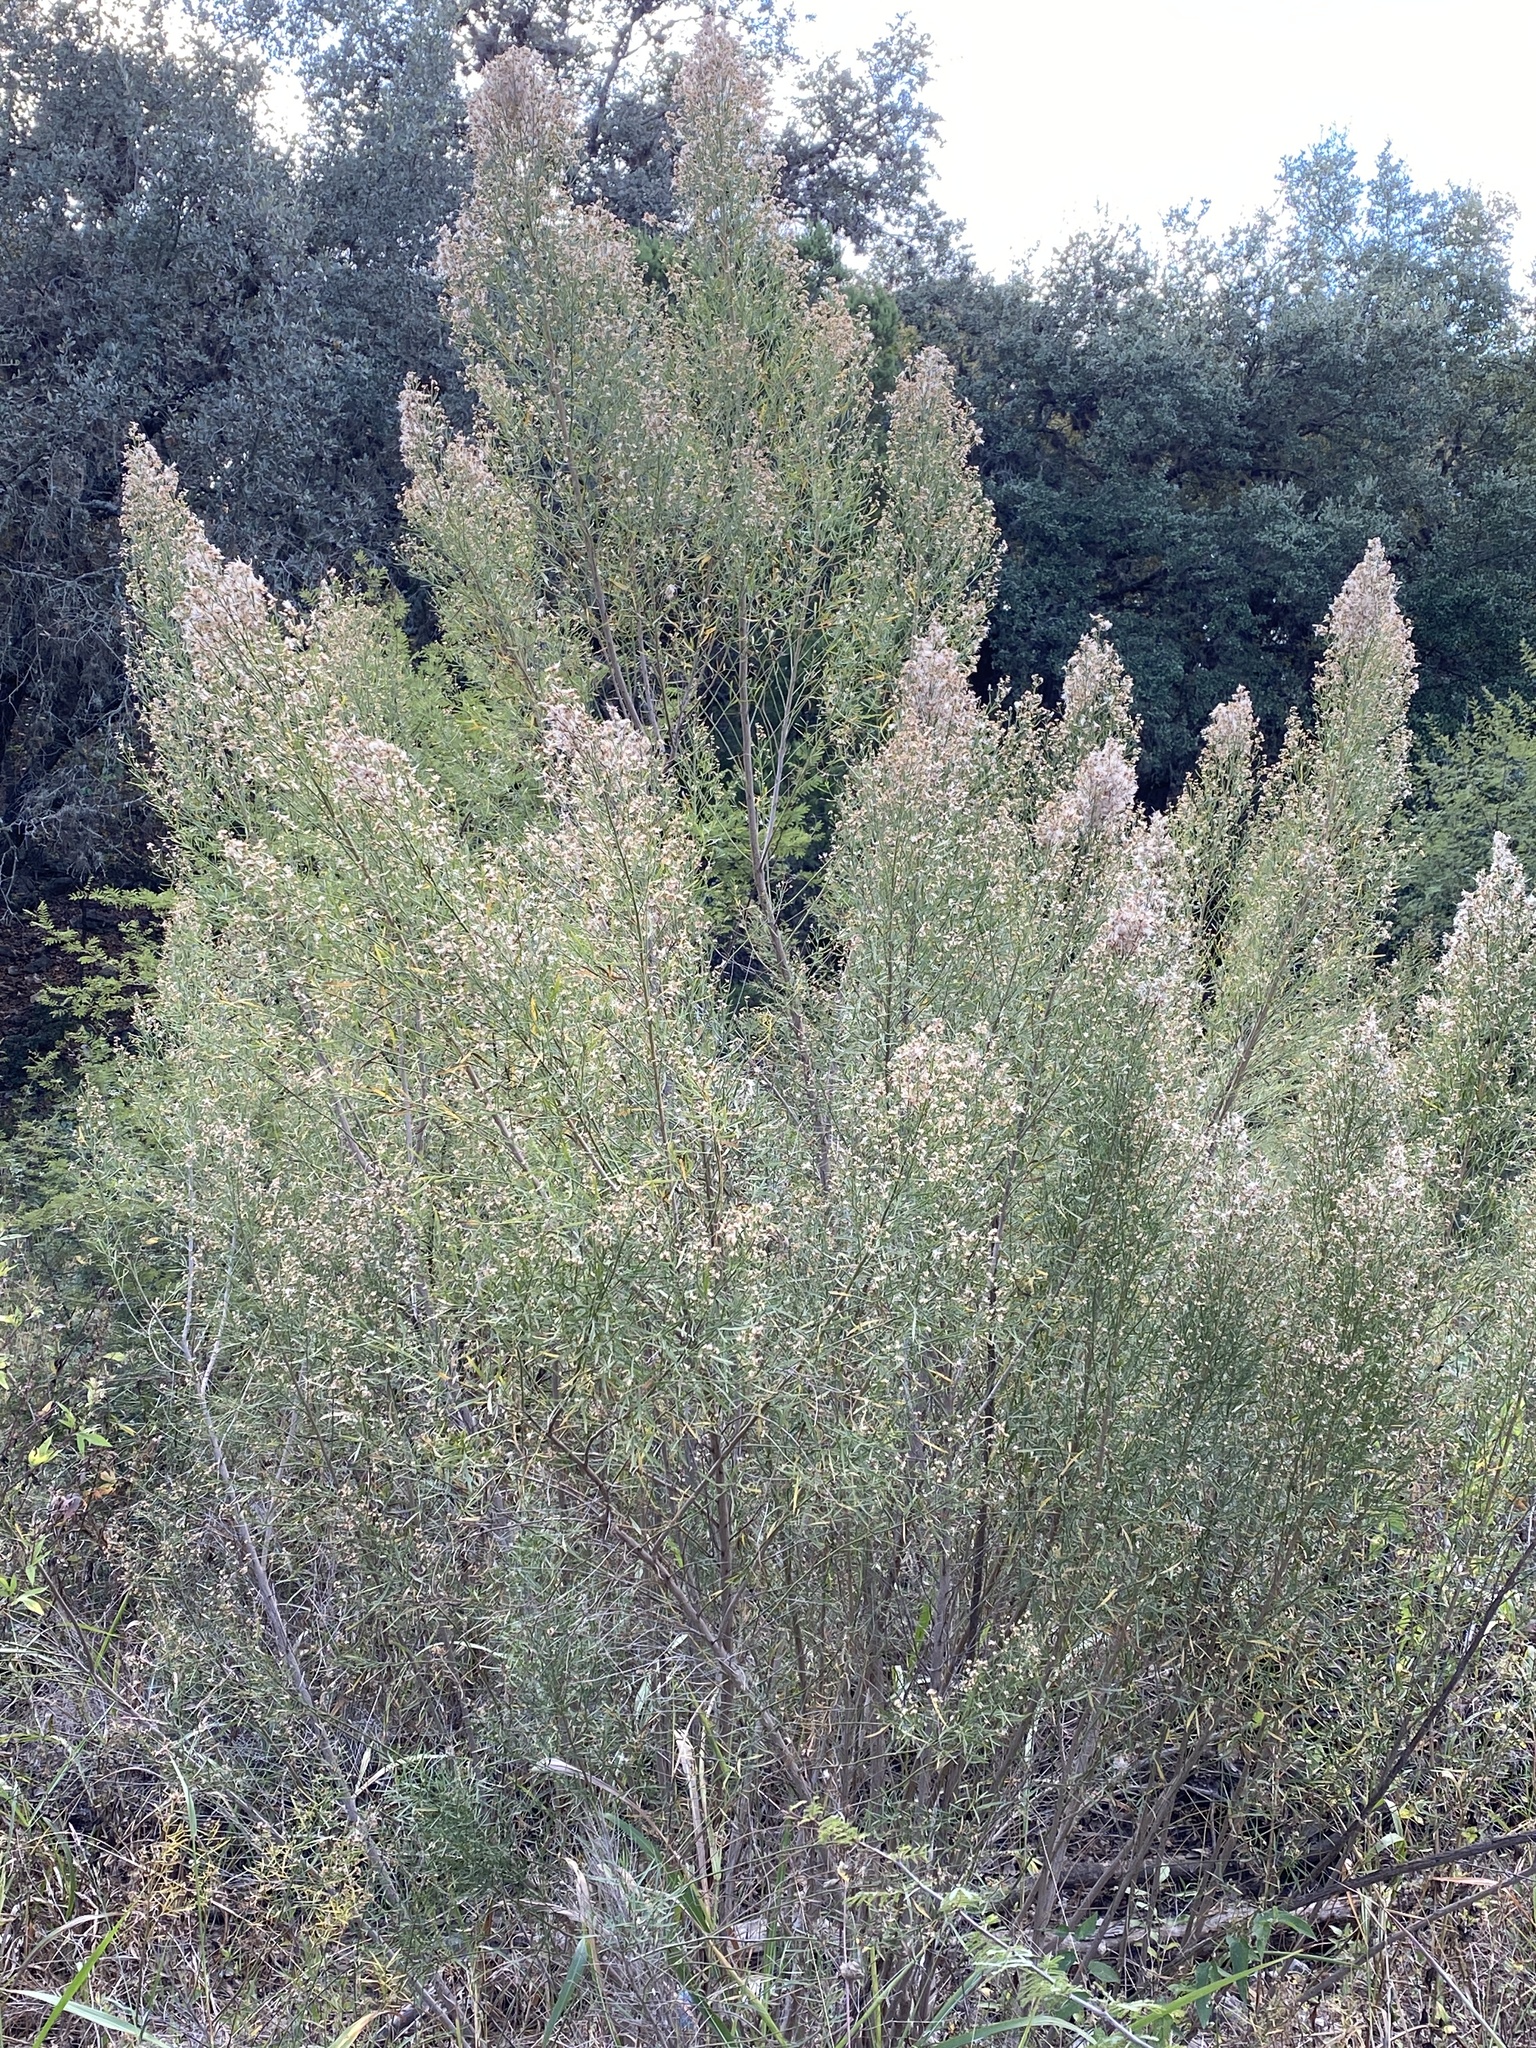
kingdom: Plantae
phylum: Tracheophyta
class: Magnoliopsida
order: Asterales
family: Asteraceae
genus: Baccharis
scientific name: Baccharis neglecta
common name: Roosevelt-weed
